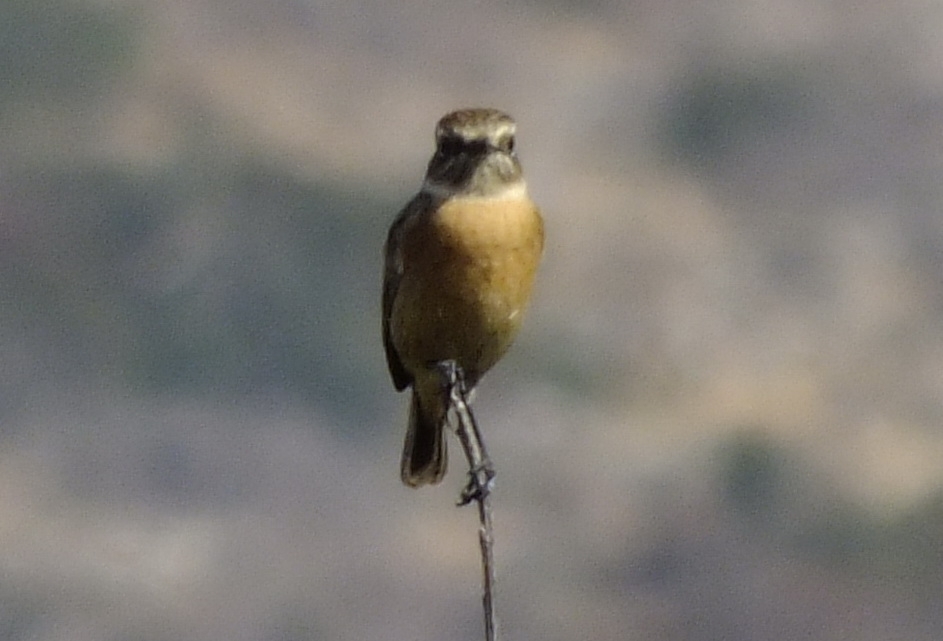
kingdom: Animalia
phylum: Chordata
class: Aves
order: Passeriformes
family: Muscicapidae
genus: Saxicola
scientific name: Saxicola rubicola
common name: European stonechat
